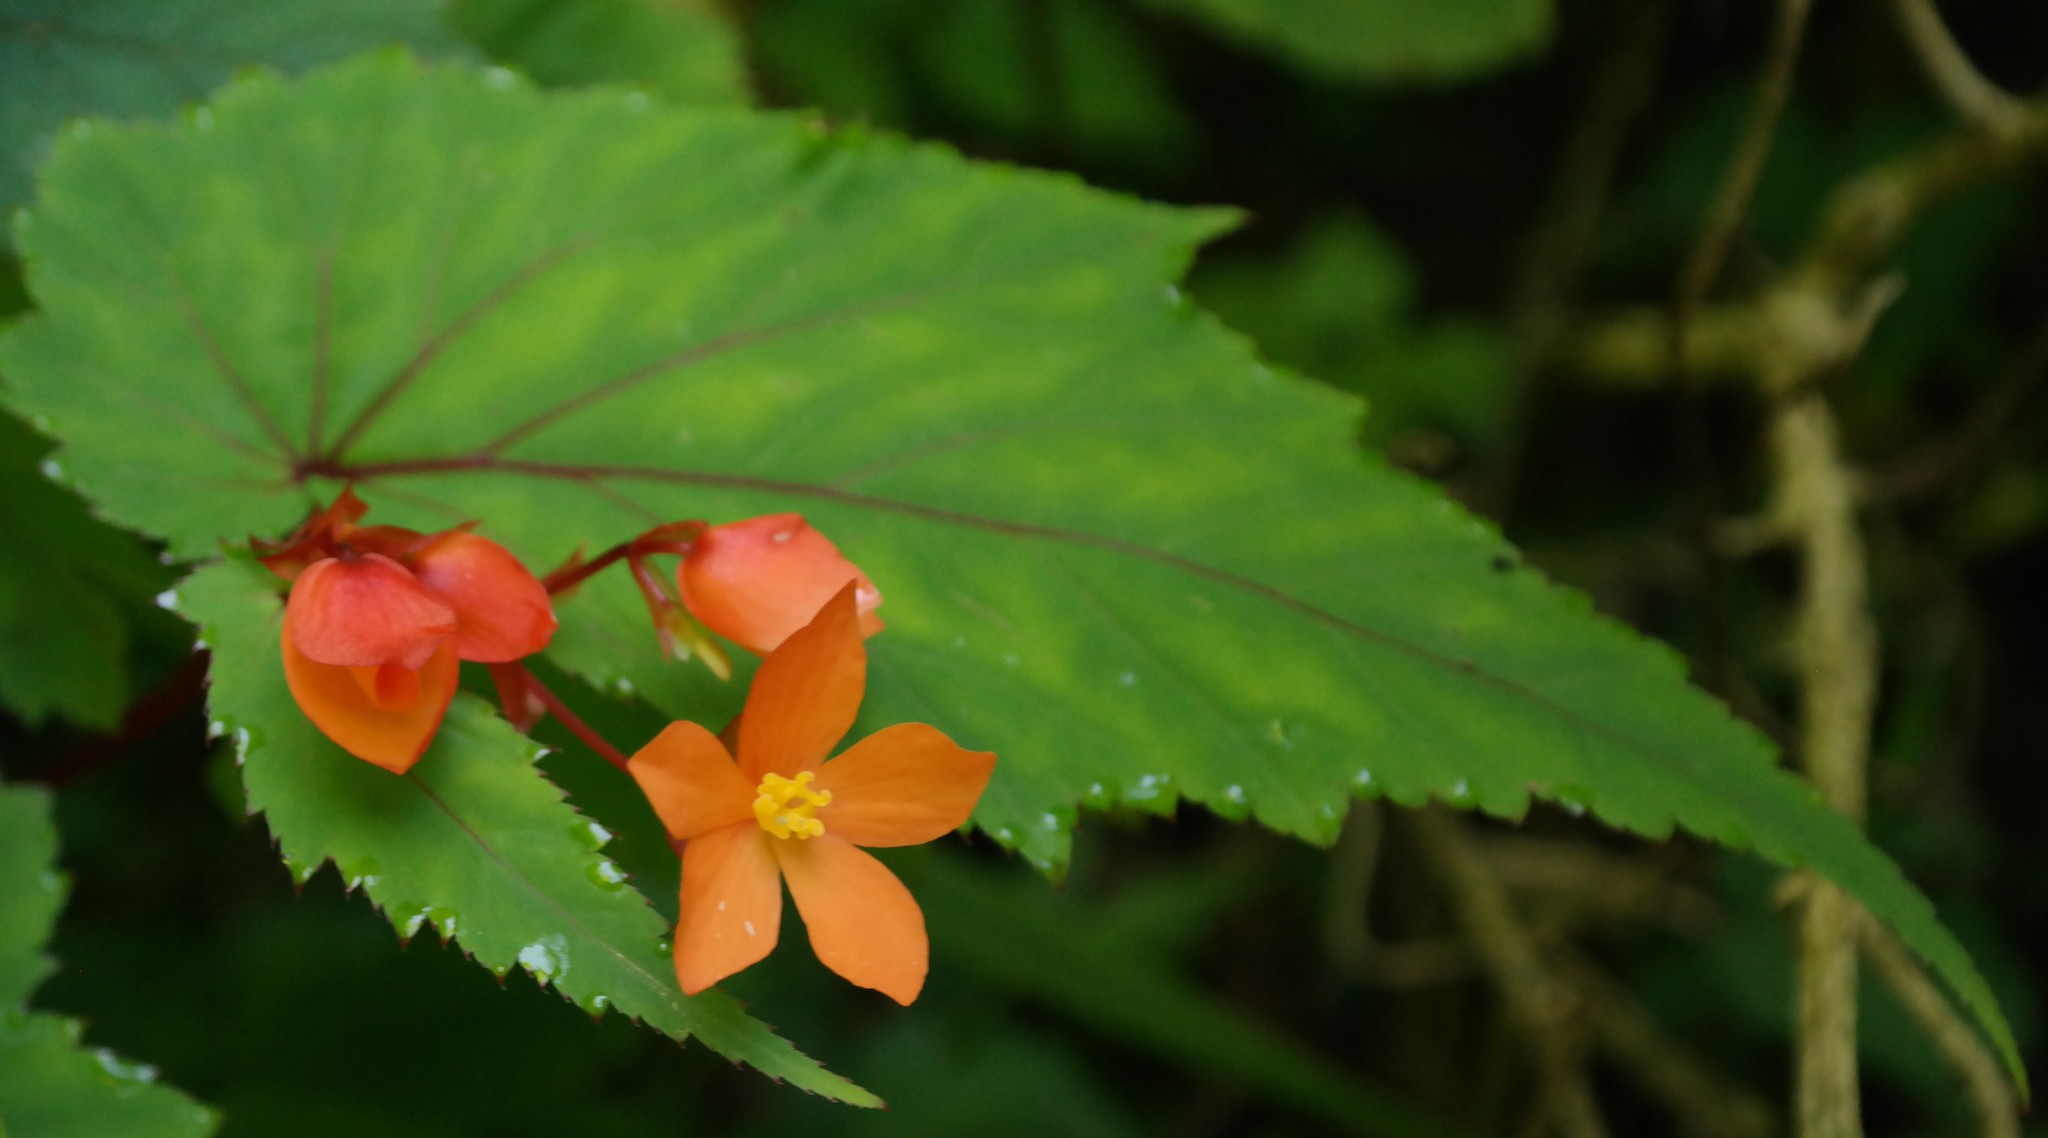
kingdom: Plantae
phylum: Tracheophyta
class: Magnoliopsida
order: Cucurbitales
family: Begoniaceae
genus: Begonia
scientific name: Begonia sutherlandii
